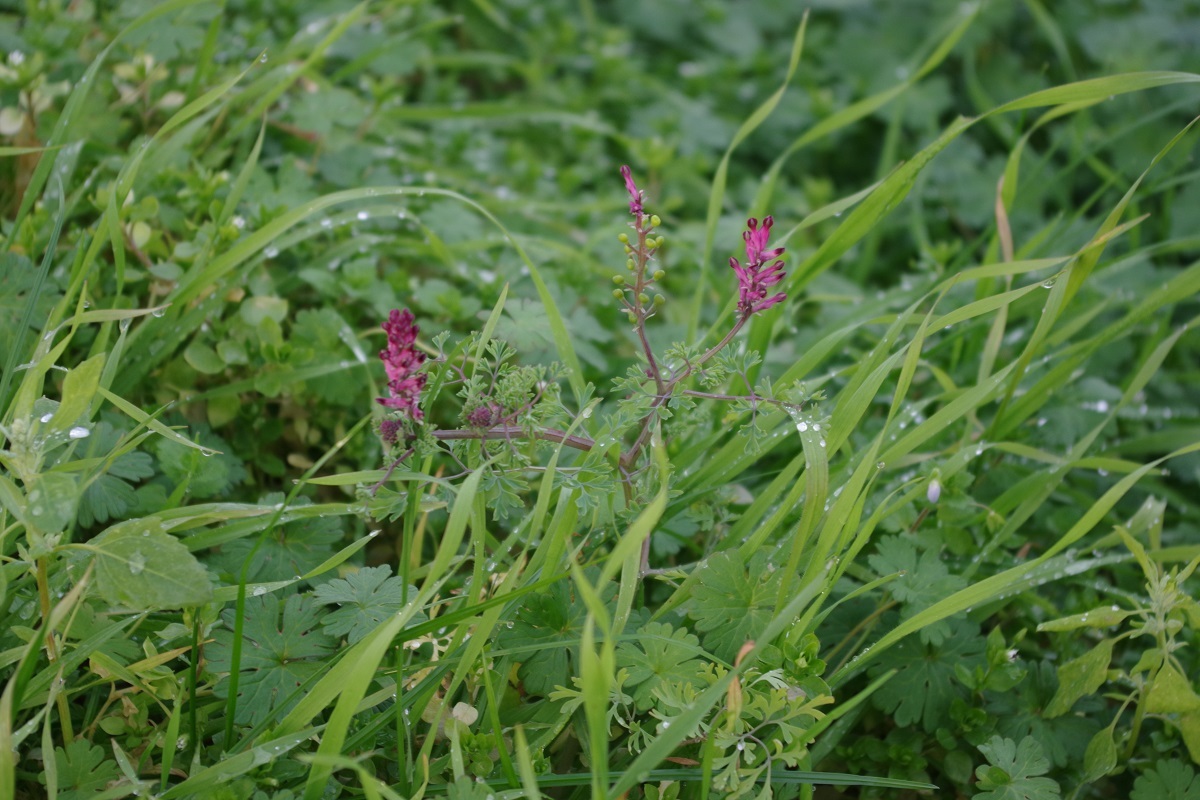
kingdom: Plantae
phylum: Tracheophyta
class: Magnoliopsida
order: Ranunculales
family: Papaveraceae
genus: Fumaria
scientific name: Fumaria officinalis
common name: Common fumitory
